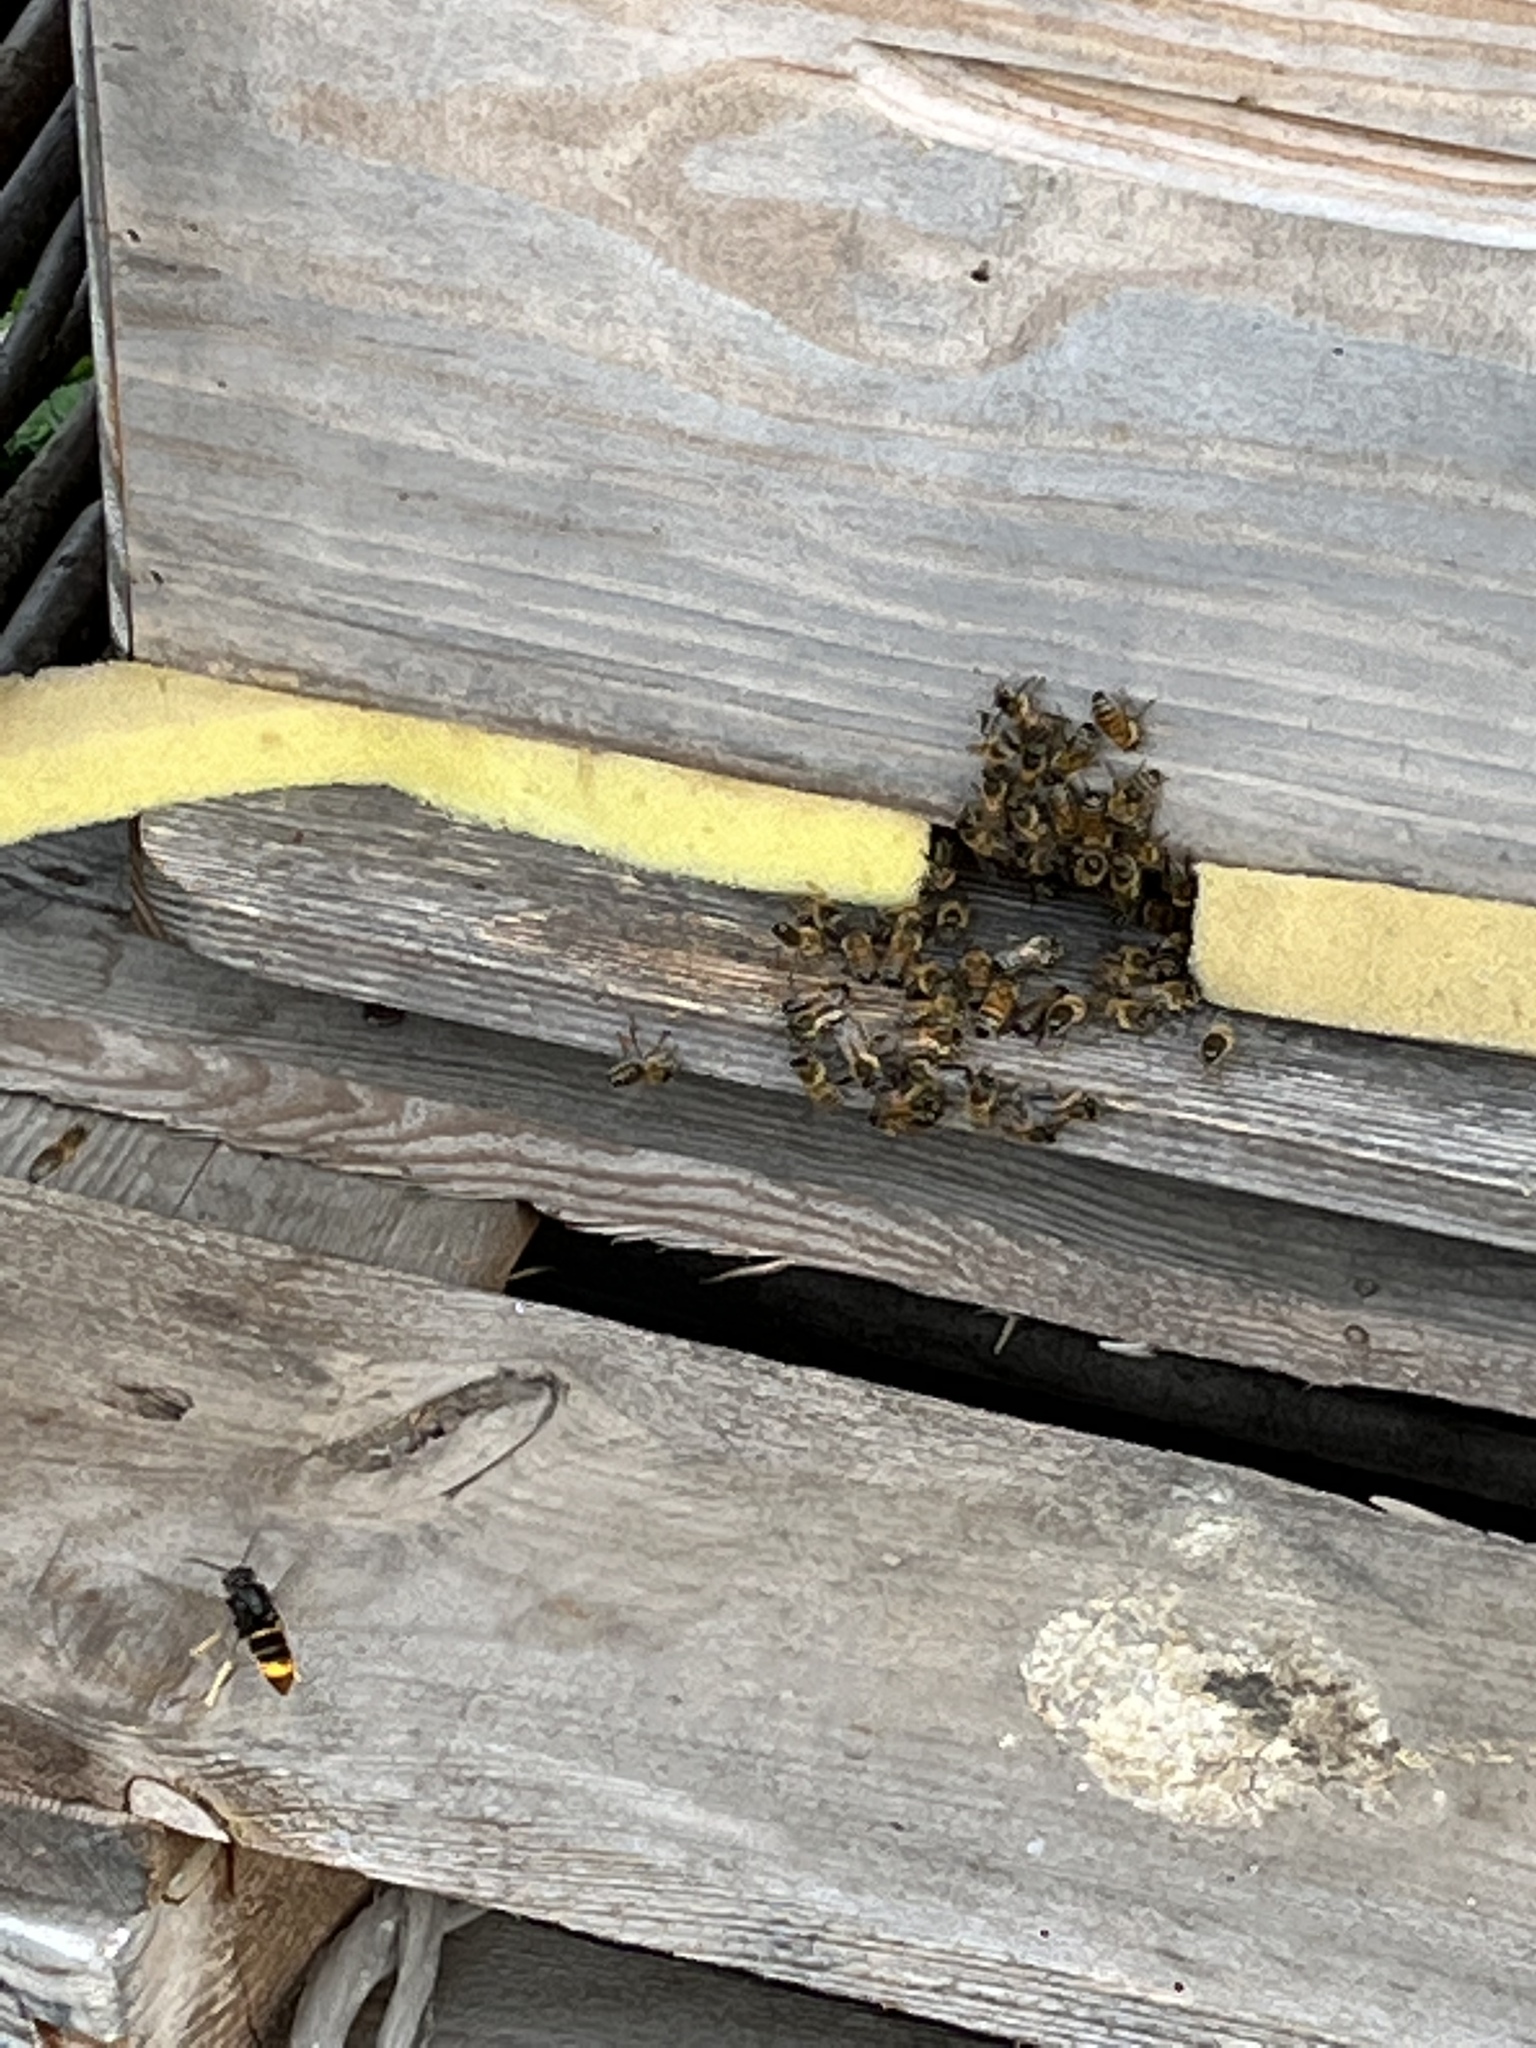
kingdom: Animalia
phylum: Arthropoda
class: Insecta
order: Hymenoptera
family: Vespidae
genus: Vespa
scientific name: Vespa velutina
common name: Asian hornet
